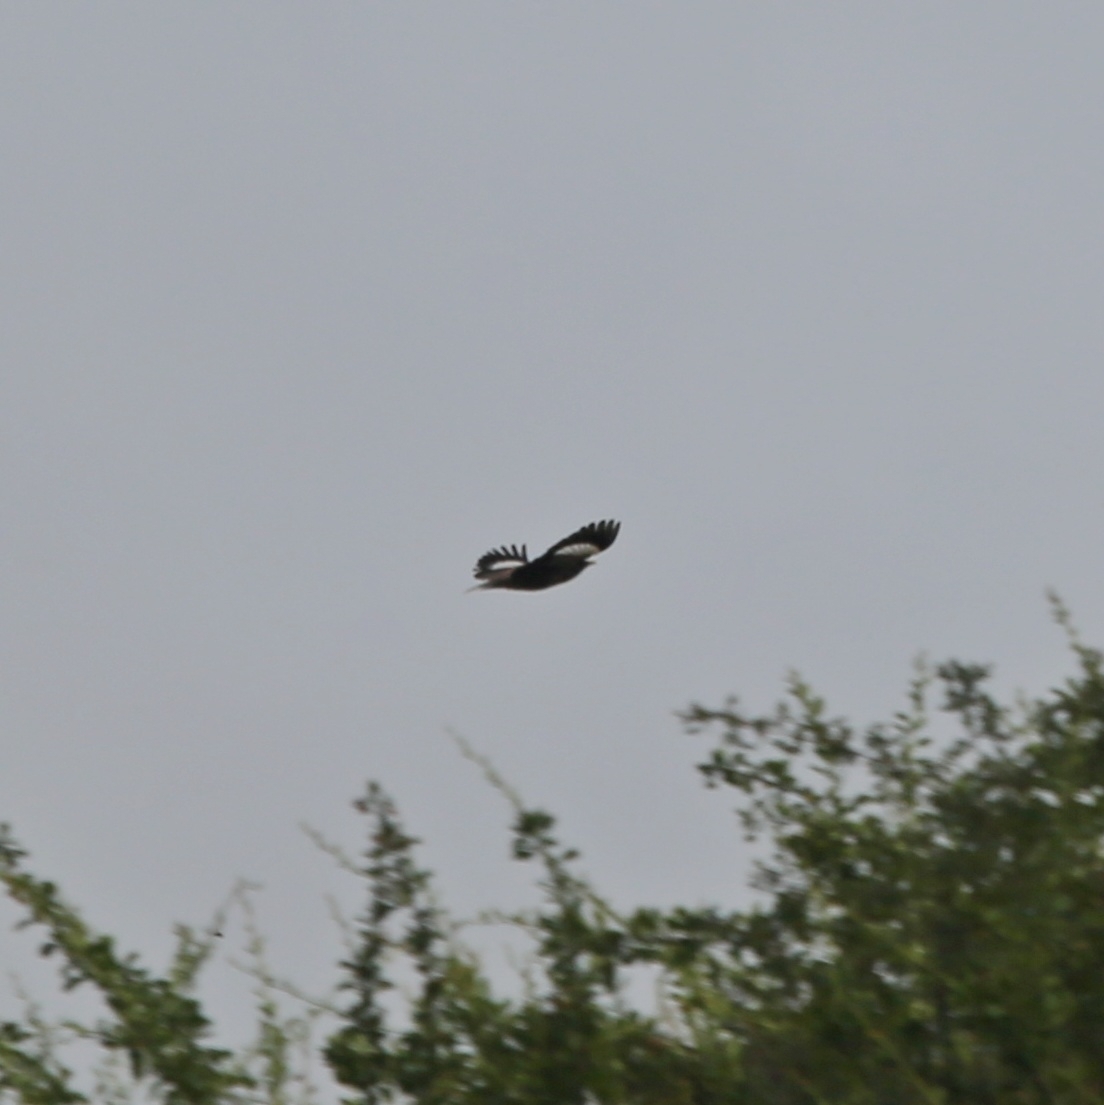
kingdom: Animalia
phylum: Chordata
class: Aves
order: Passeriformes
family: Sturnidae
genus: Acridotheres
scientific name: Acridotheres tristis
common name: Common myna
